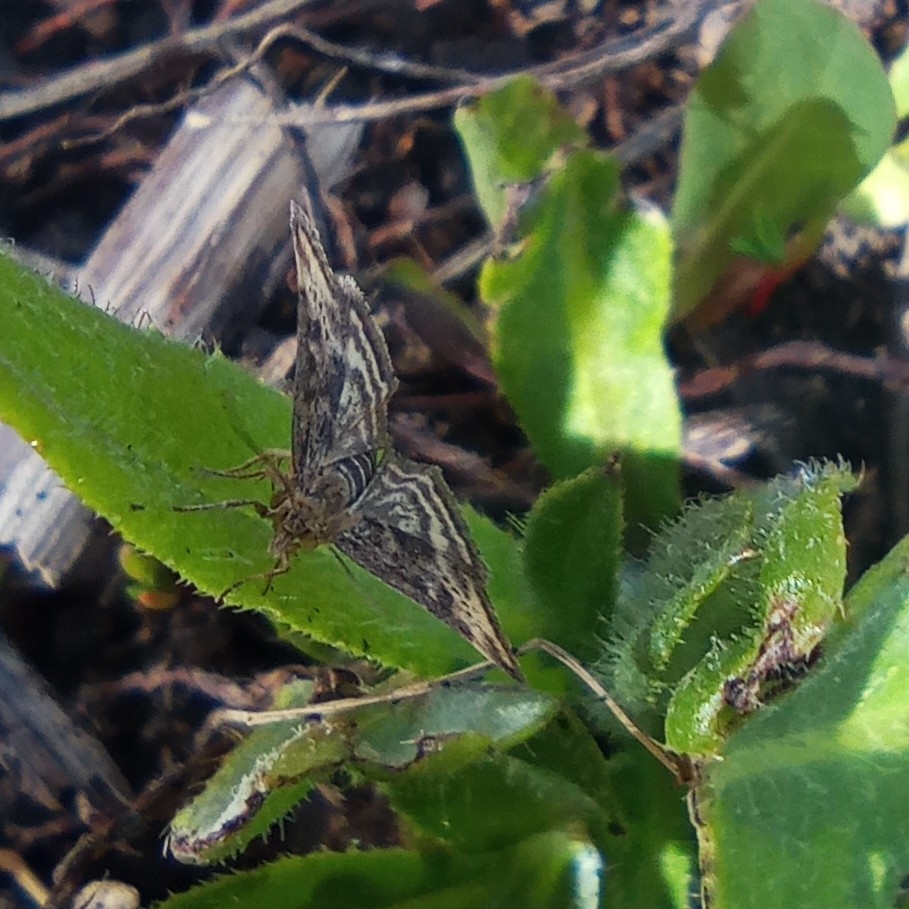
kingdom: Animalia
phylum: Arthropoda
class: Insecta
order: Lepidoptera
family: Crambidae
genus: Pyrausta
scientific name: Pyrausta despicata
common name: Straw-barred pearl
